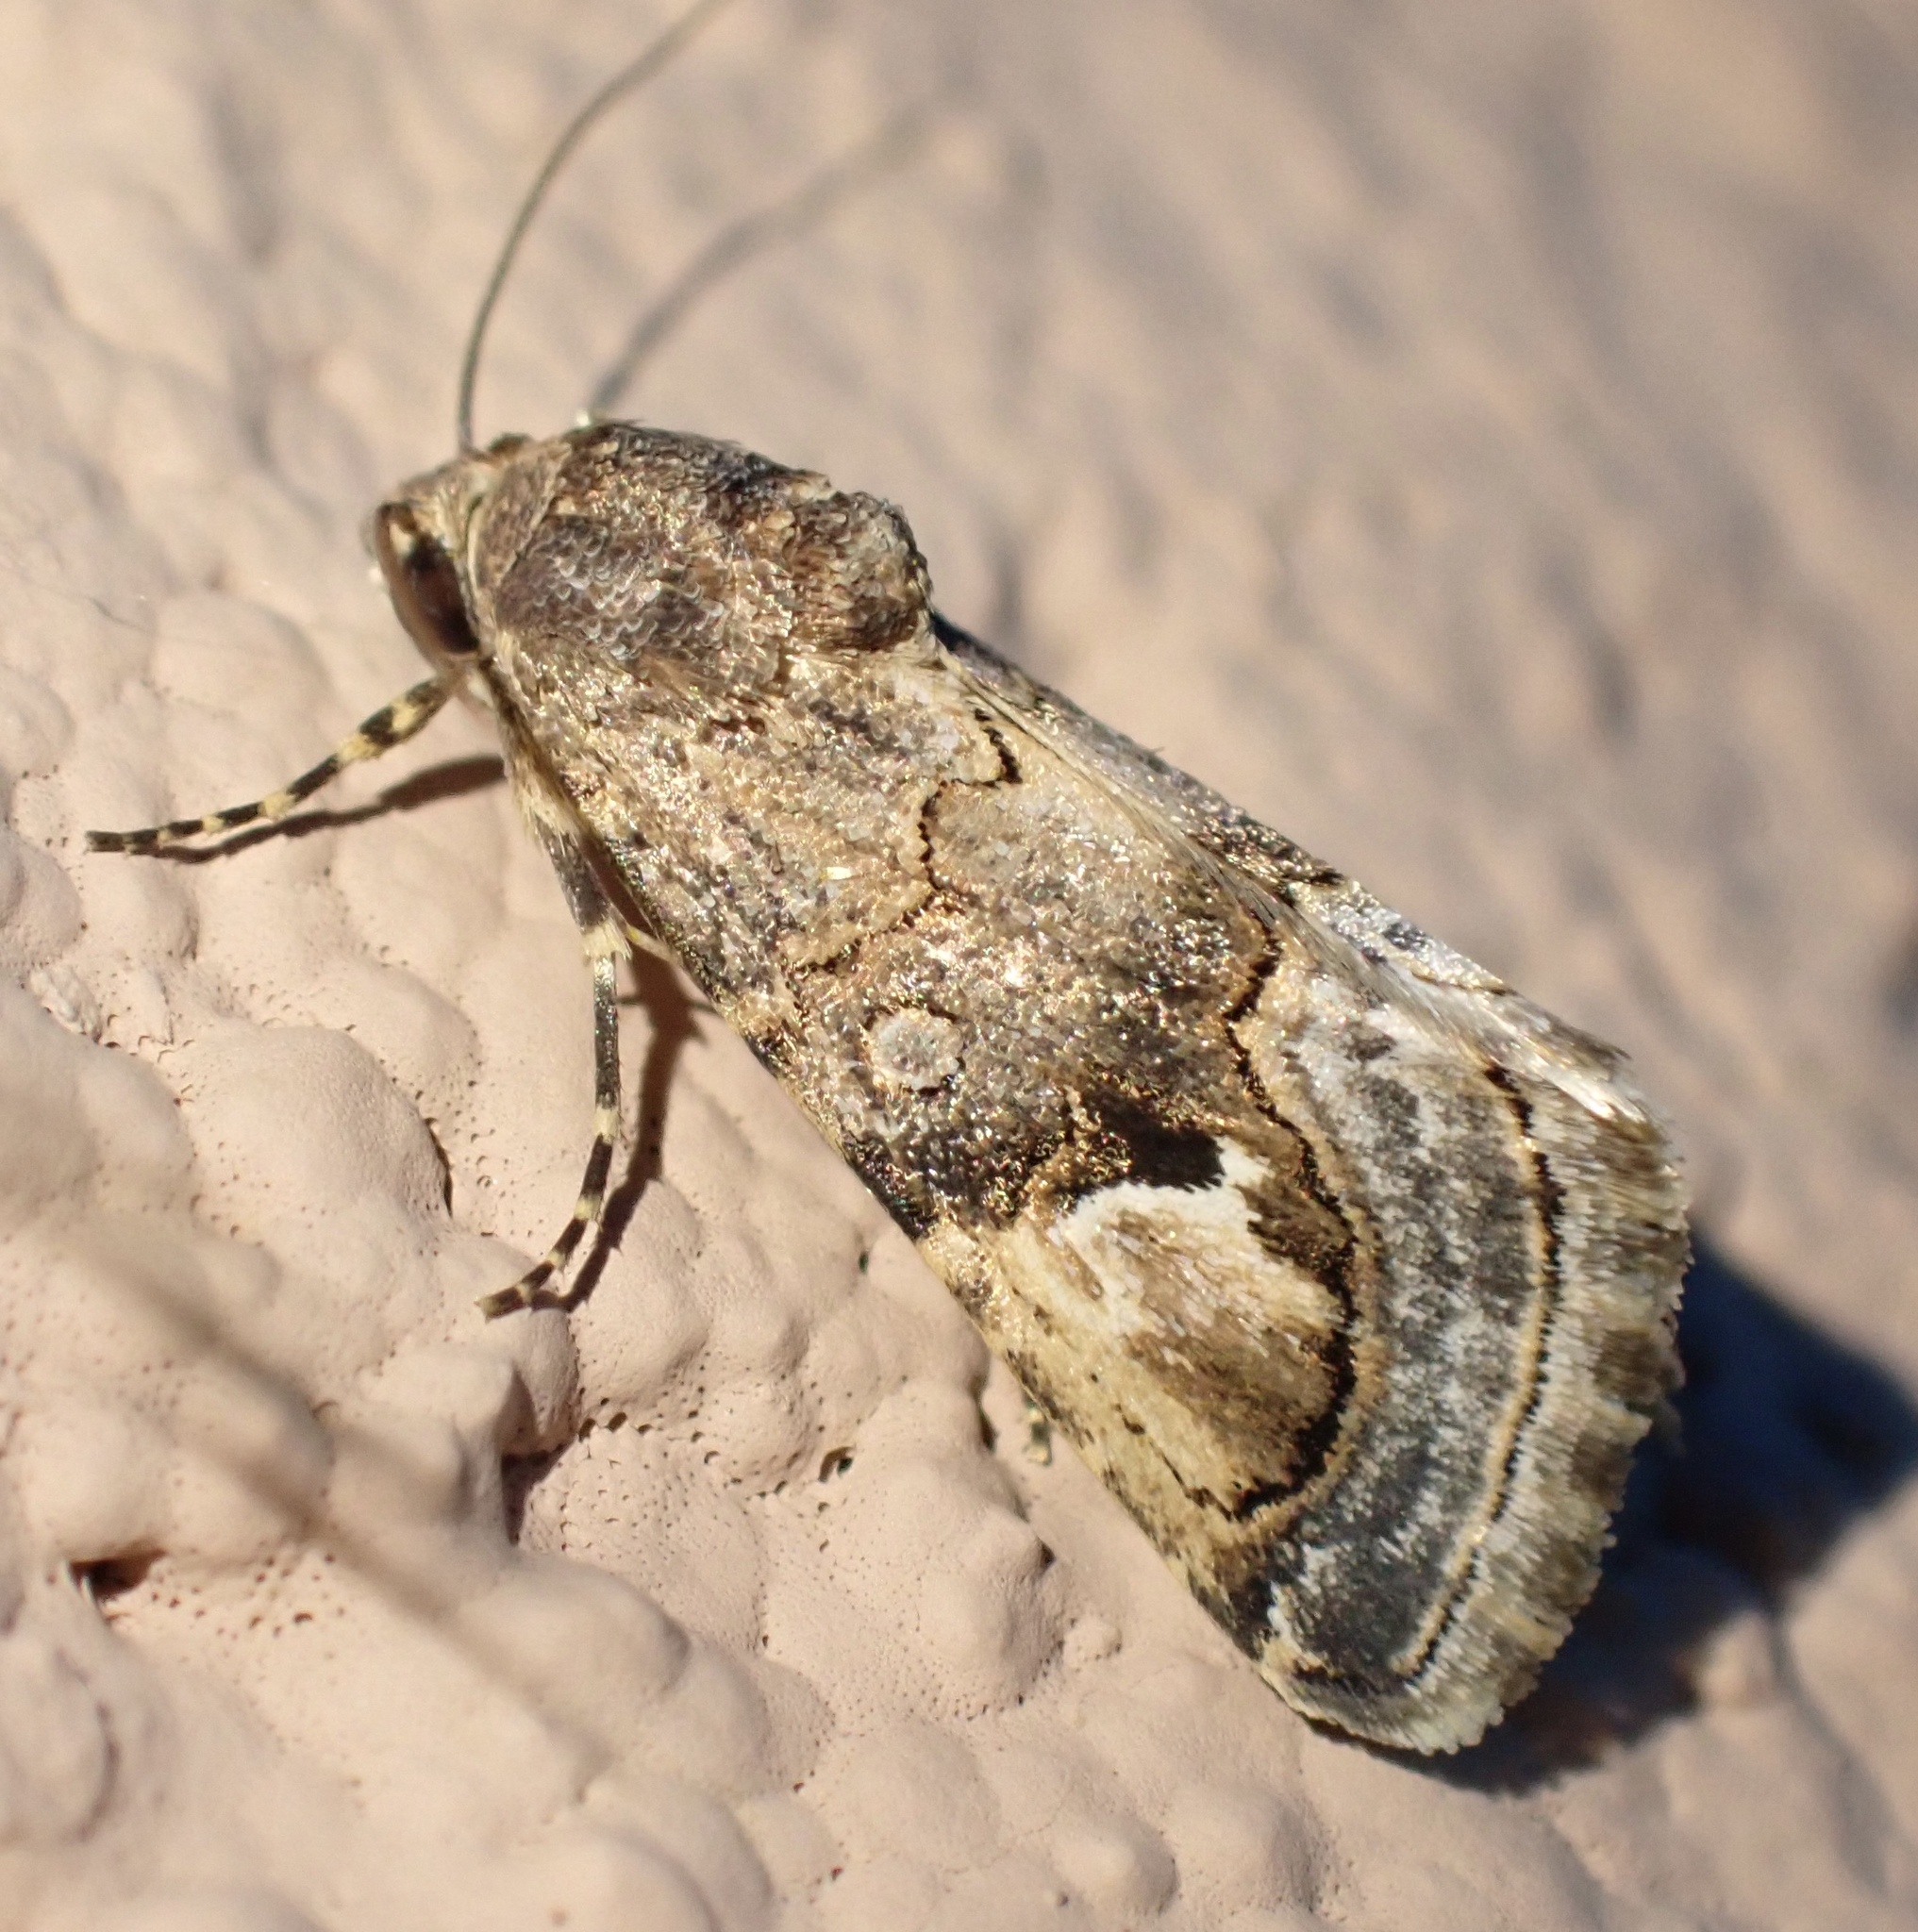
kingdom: Animalia
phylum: Arthropoda
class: Insecta
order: Lepidoptera
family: Erebidae
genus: Epharmottomena
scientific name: Epharmottomena eremophila
